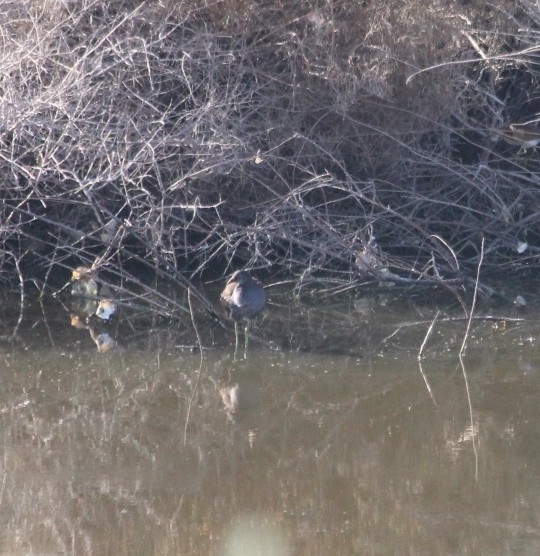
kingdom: Animalia
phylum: Chordata
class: Aves
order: Gruiformes
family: Rallidae
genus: Gallinula
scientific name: Gallinula chloropus
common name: Common moorhen
